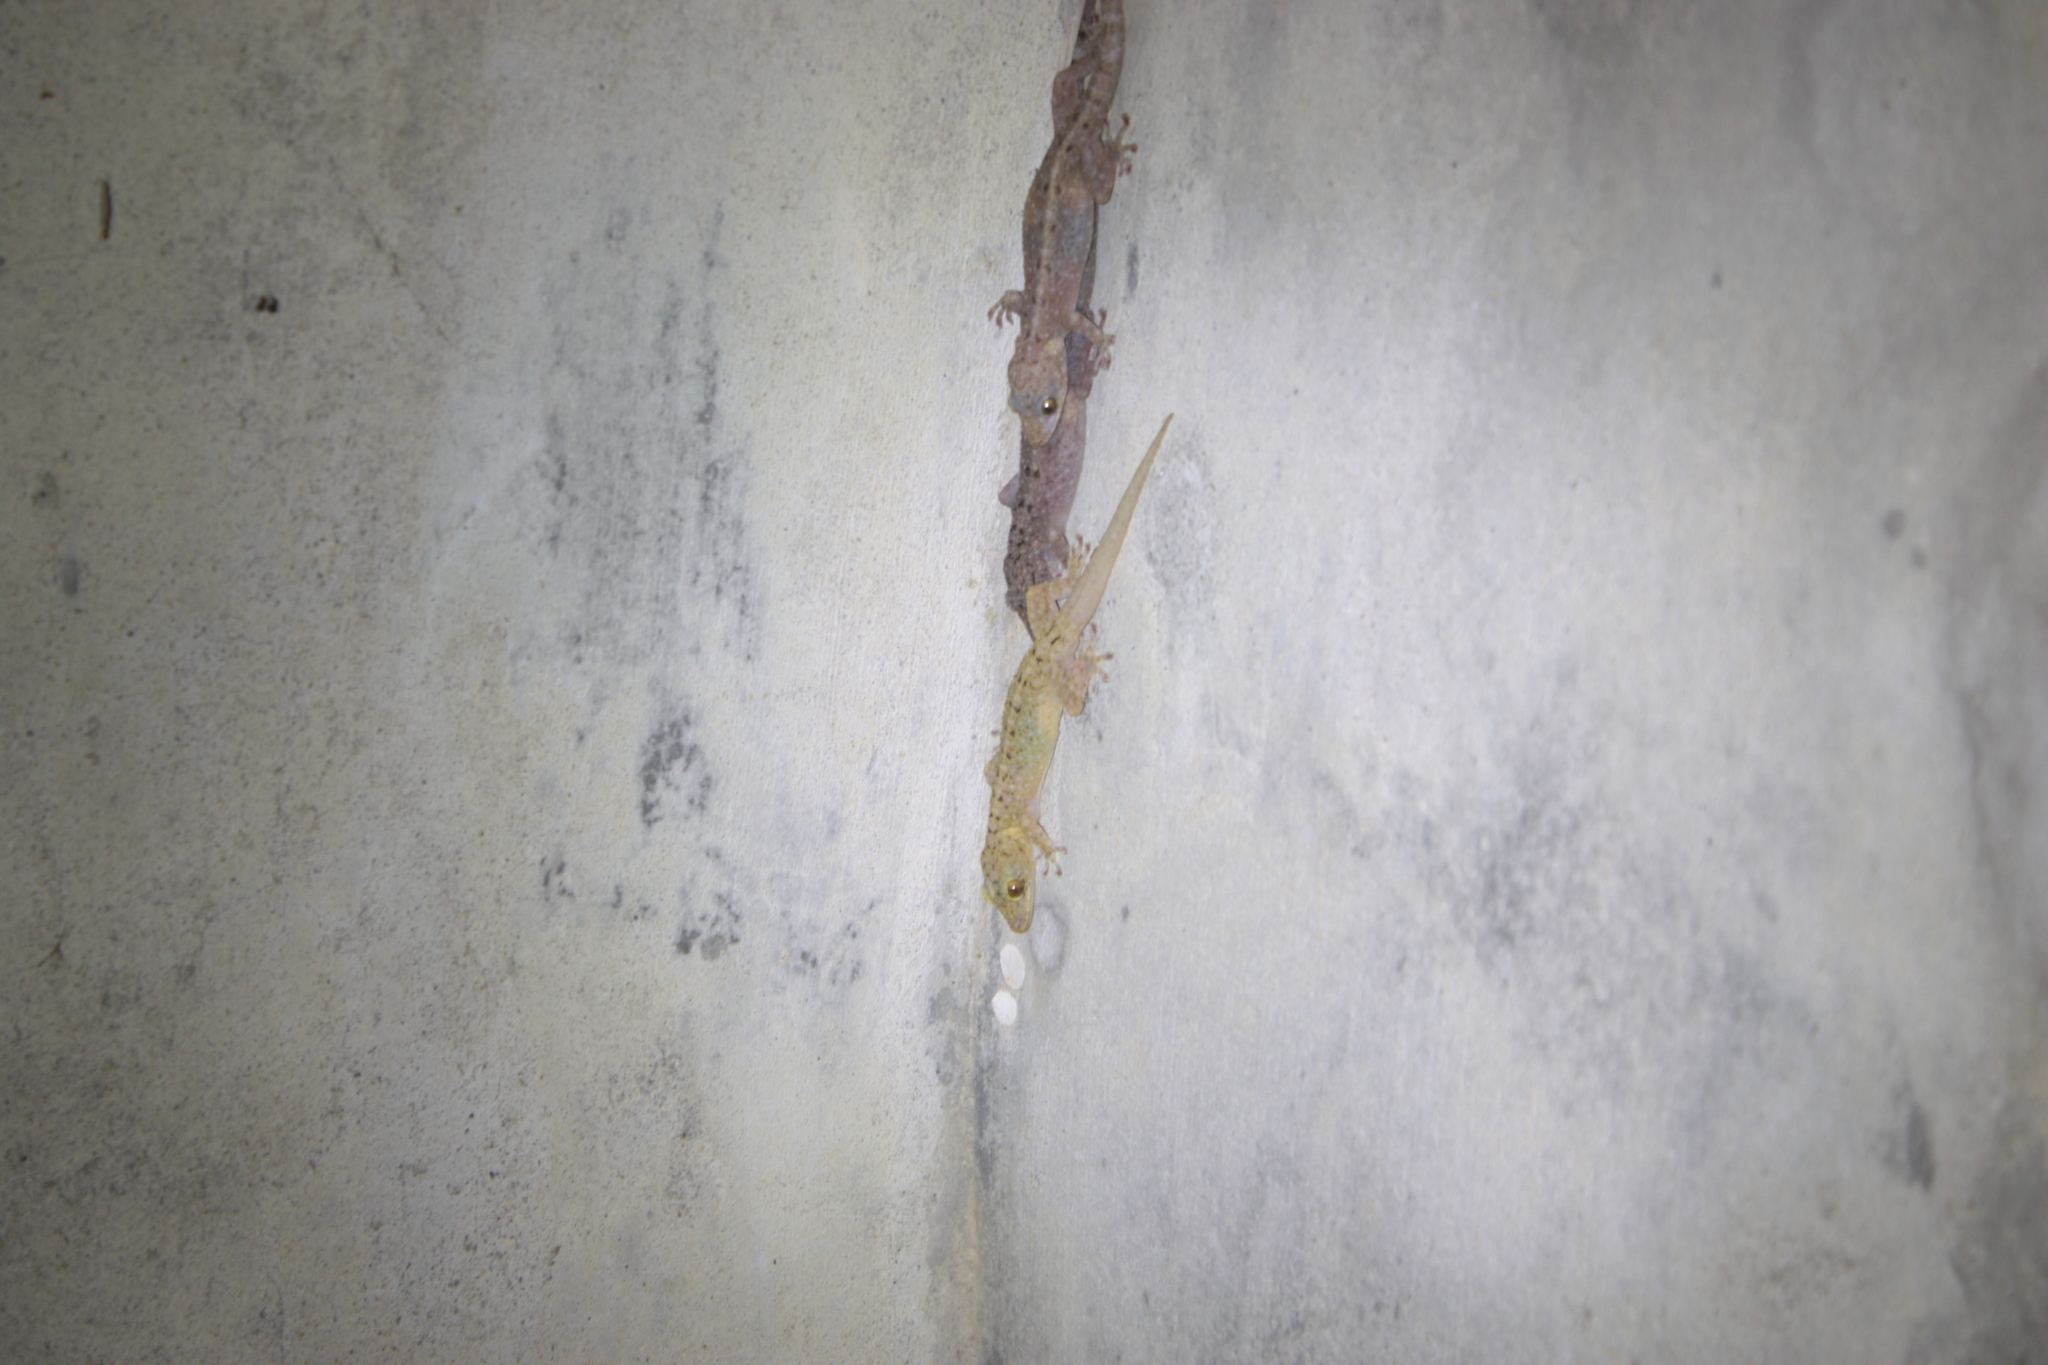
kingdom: Animalia
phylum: Chordata
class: Squamata
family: Gekkonidae
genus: Gekko
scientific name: Gekko monarchus
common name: Spotted house gecko
